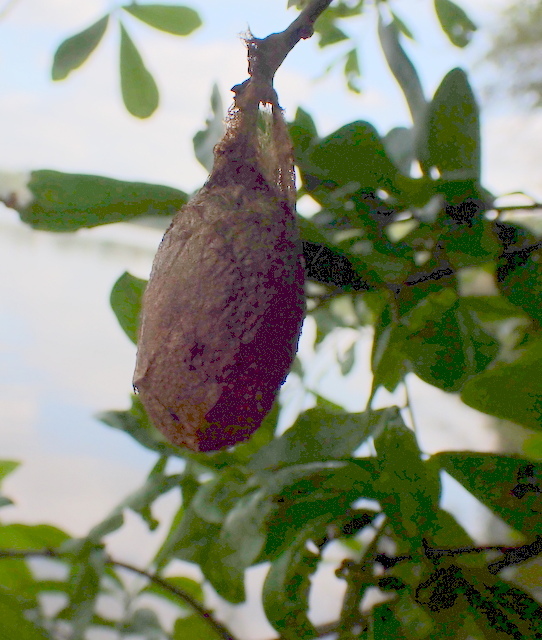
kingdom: Animalia
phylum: Arthropoda
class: Insecta
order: Lepidoptera
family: Saturniidae
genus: Antheraea
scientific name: Antheraea polyphemus
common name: Polyphemus moth
